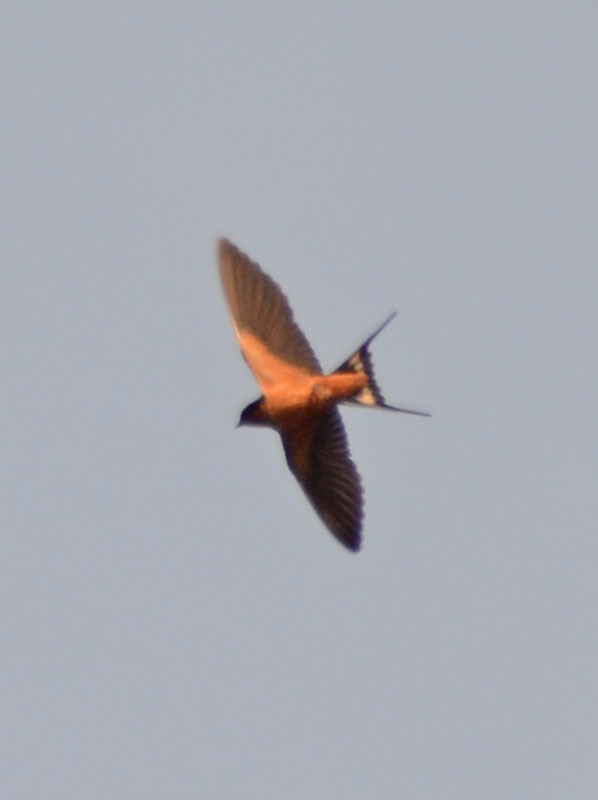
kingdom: Animalia
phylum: Chordata
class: Aves
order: Passeriformes
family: Hirundinidae
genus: Hirundo
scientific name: Hirundo rustica
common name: Barn swallow
